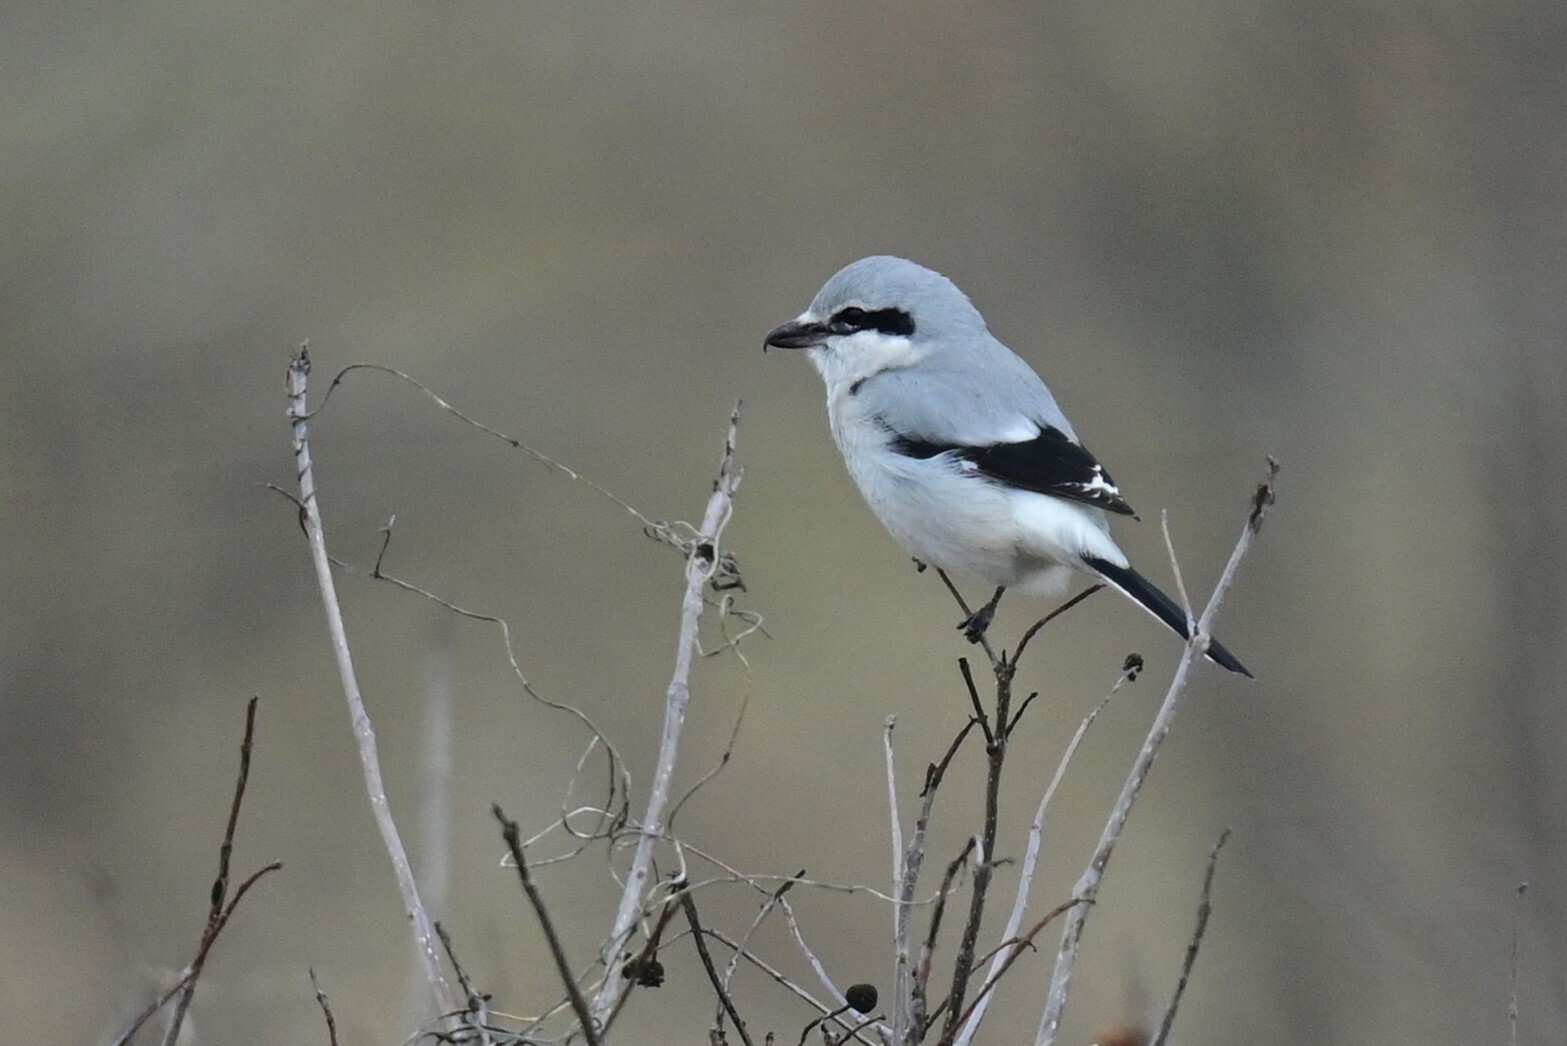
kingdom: Animalia
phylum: Chordata
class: Aves
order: Passeriformes
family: Laniidae
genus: Lanius
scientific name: Lanius borealis
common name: Northern shrike
